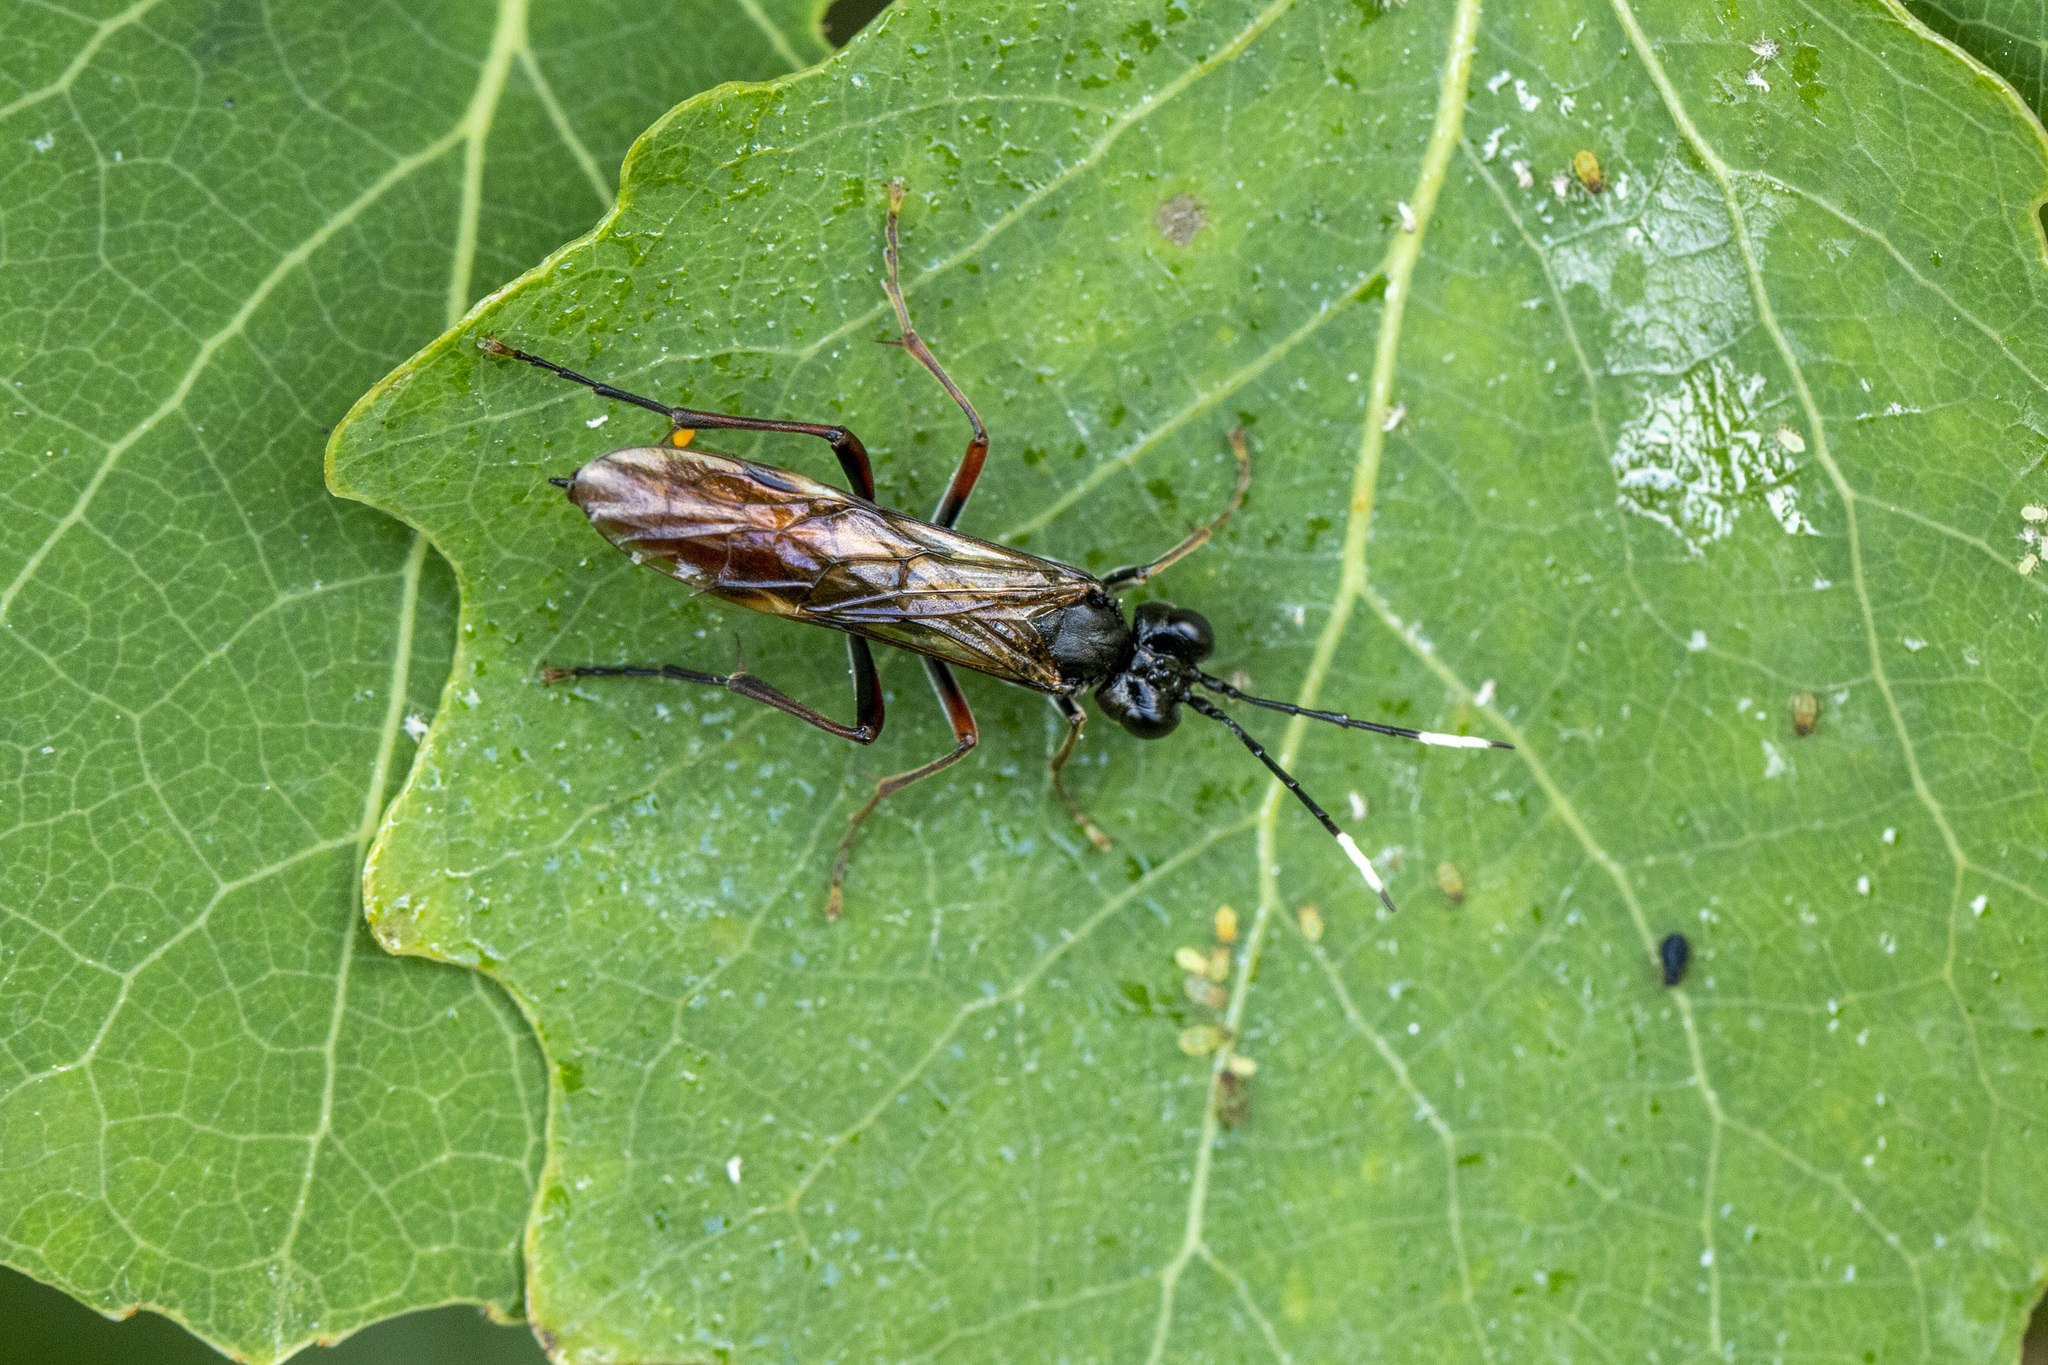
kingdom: Animalia
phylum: Arthropoda
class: Insecta
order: Hymenoptera
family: Tenthredinidae
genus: Tenthredo
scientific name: Tenthredo livida
